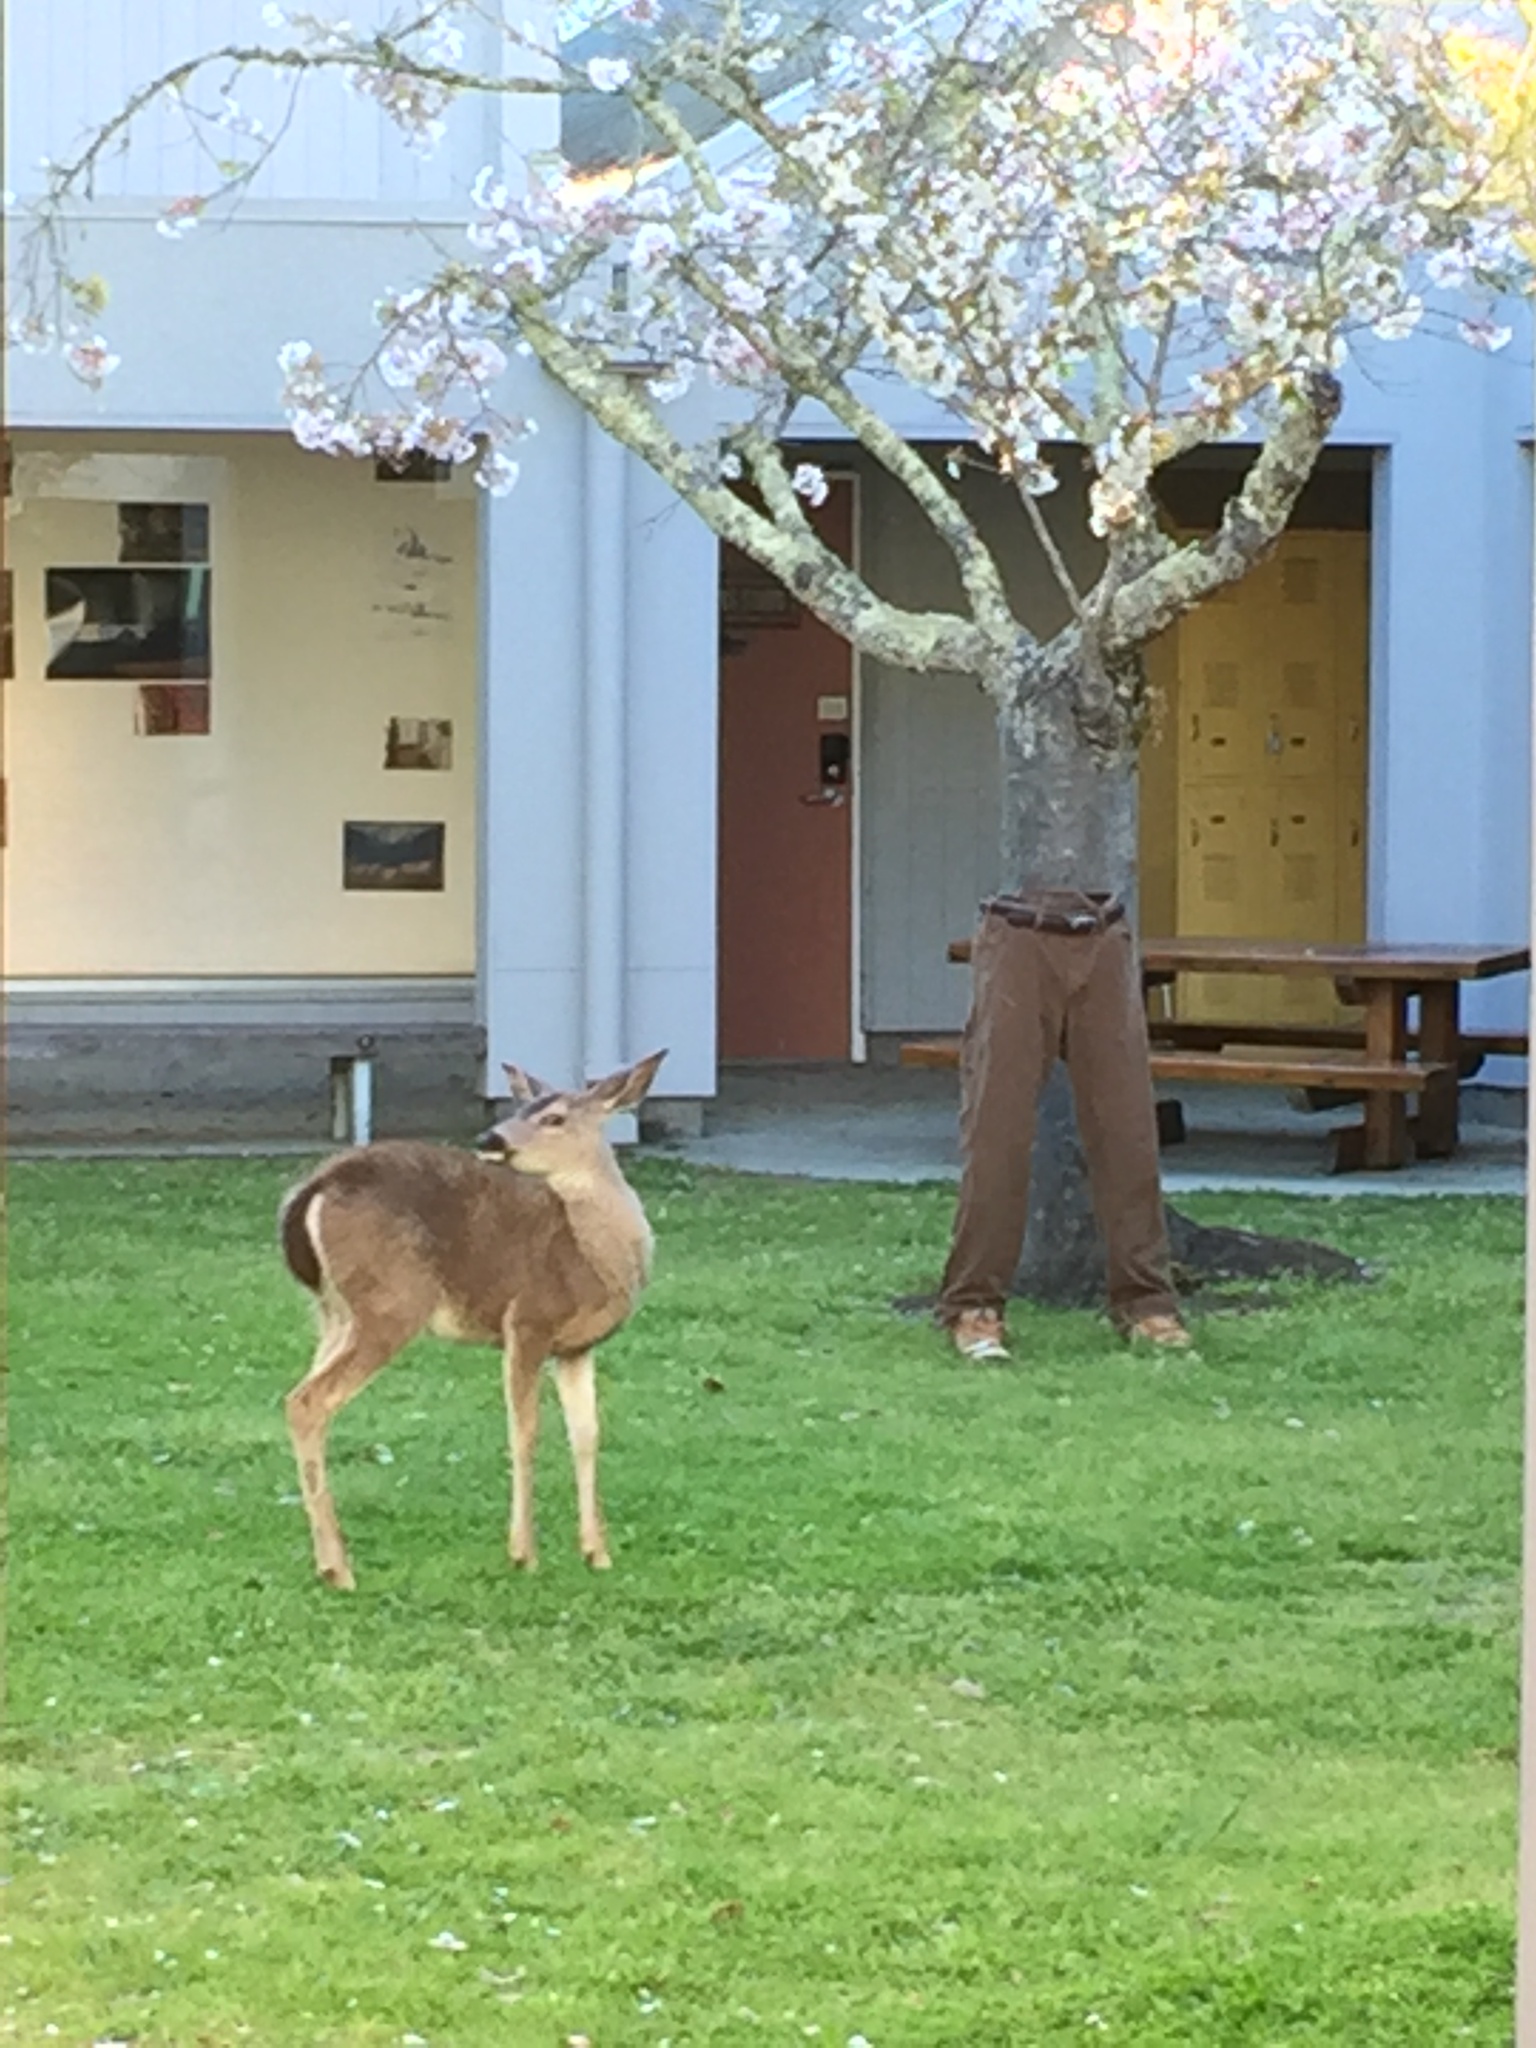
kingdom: Animalia
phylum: Chordata
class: Mammalia
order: Artiodactyla
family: Cervidae
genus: Odocoileus
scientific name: Odocoileus hemionus
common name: Mule deer
